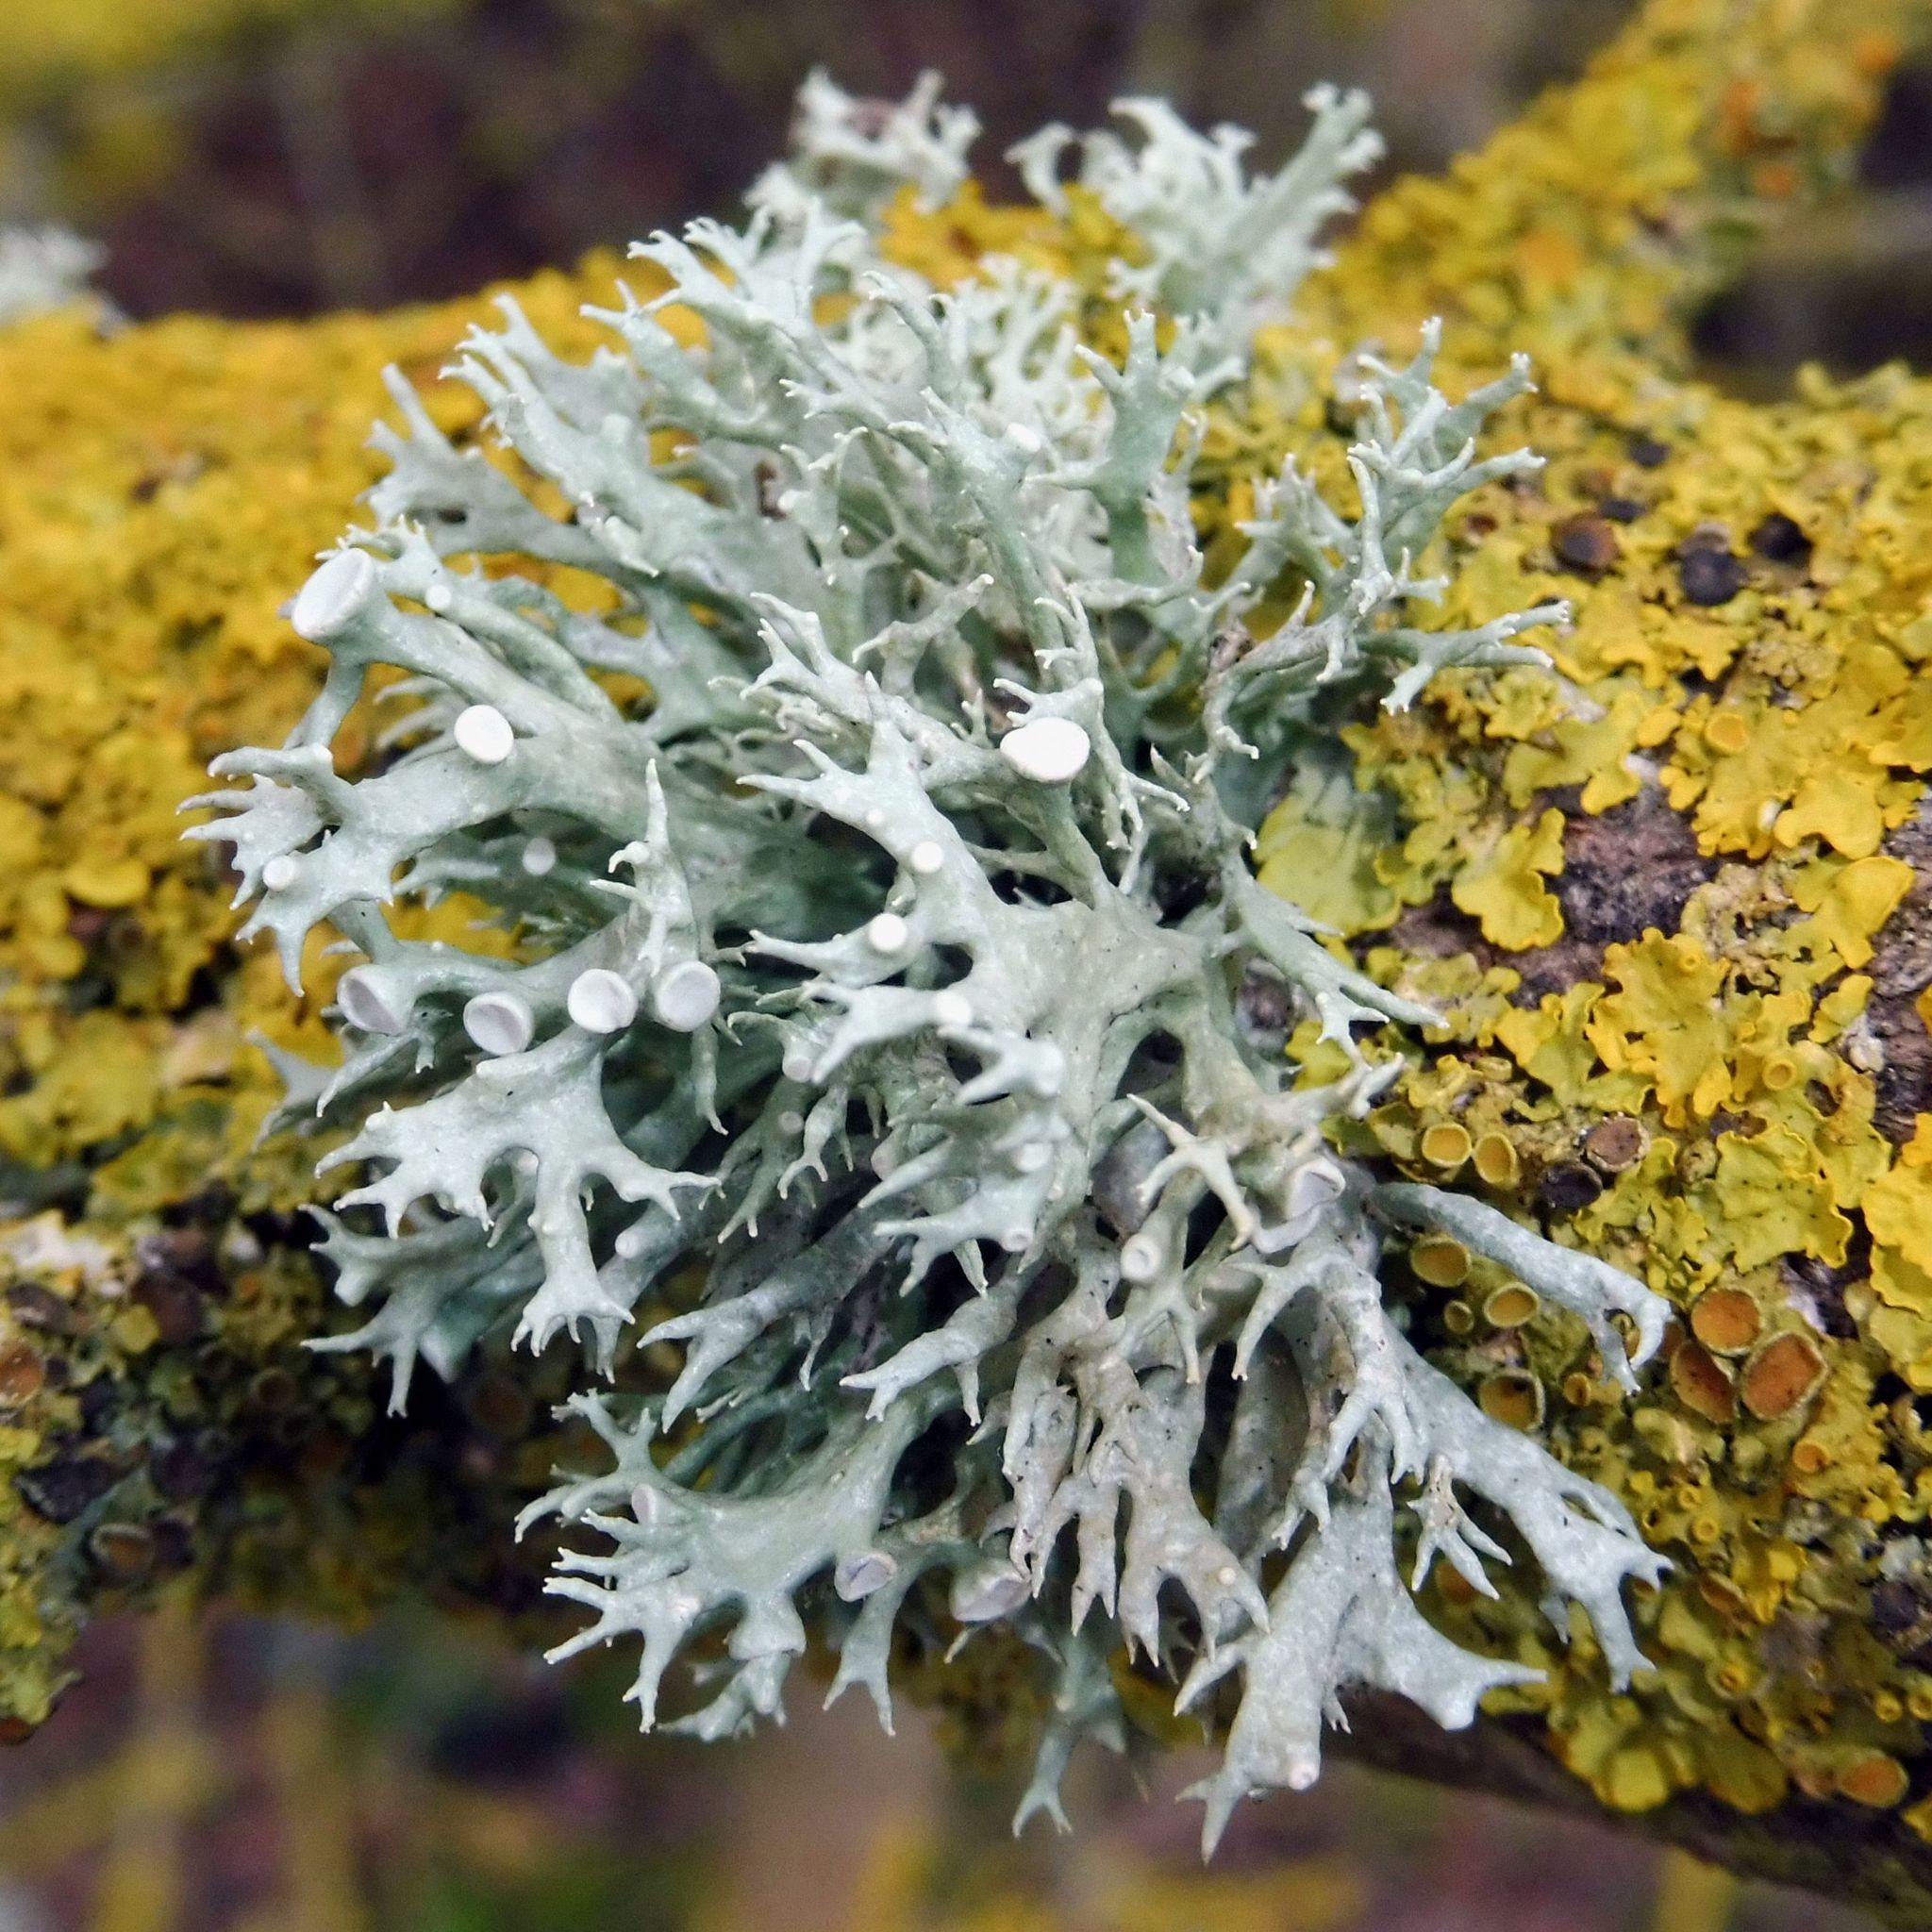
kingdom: Fungi
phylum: Ascomycota
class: Lecanoromycetes
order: Lecanorales
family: Ramalinaceae
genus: Ramalina
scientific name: Ramalina fastigiata
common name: Dotted ribbon lichen
